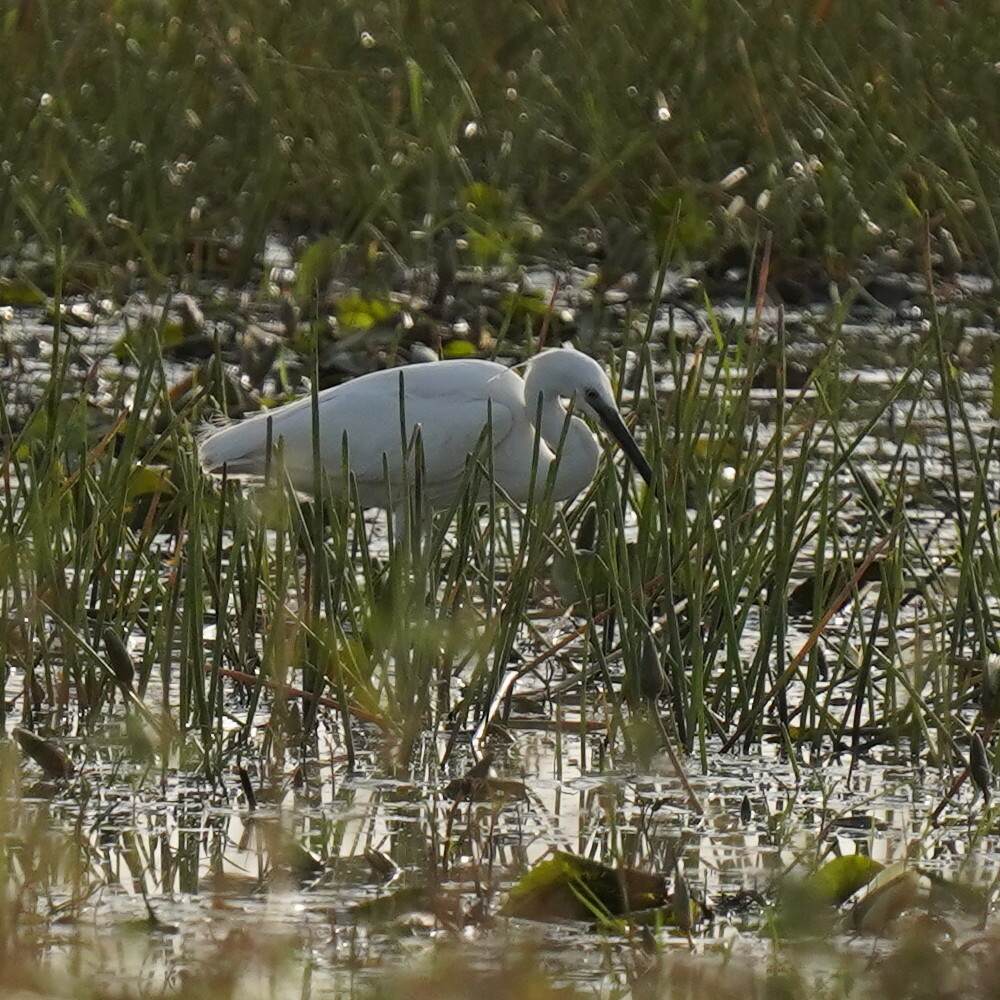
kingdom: Animalia
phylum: Chordata
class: Aves
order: Pelecaniformes
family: Ardeidae
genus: Egretta
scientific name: Egretta garzetta
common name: Little egret
